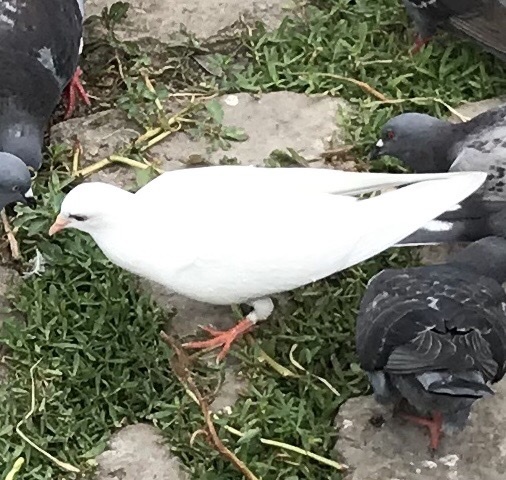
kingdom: Animalia
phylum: Chordata
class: Aves
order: Columbiformes
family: Columbidae
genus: Columba
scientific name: Columba livia
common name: Rock pigeon
